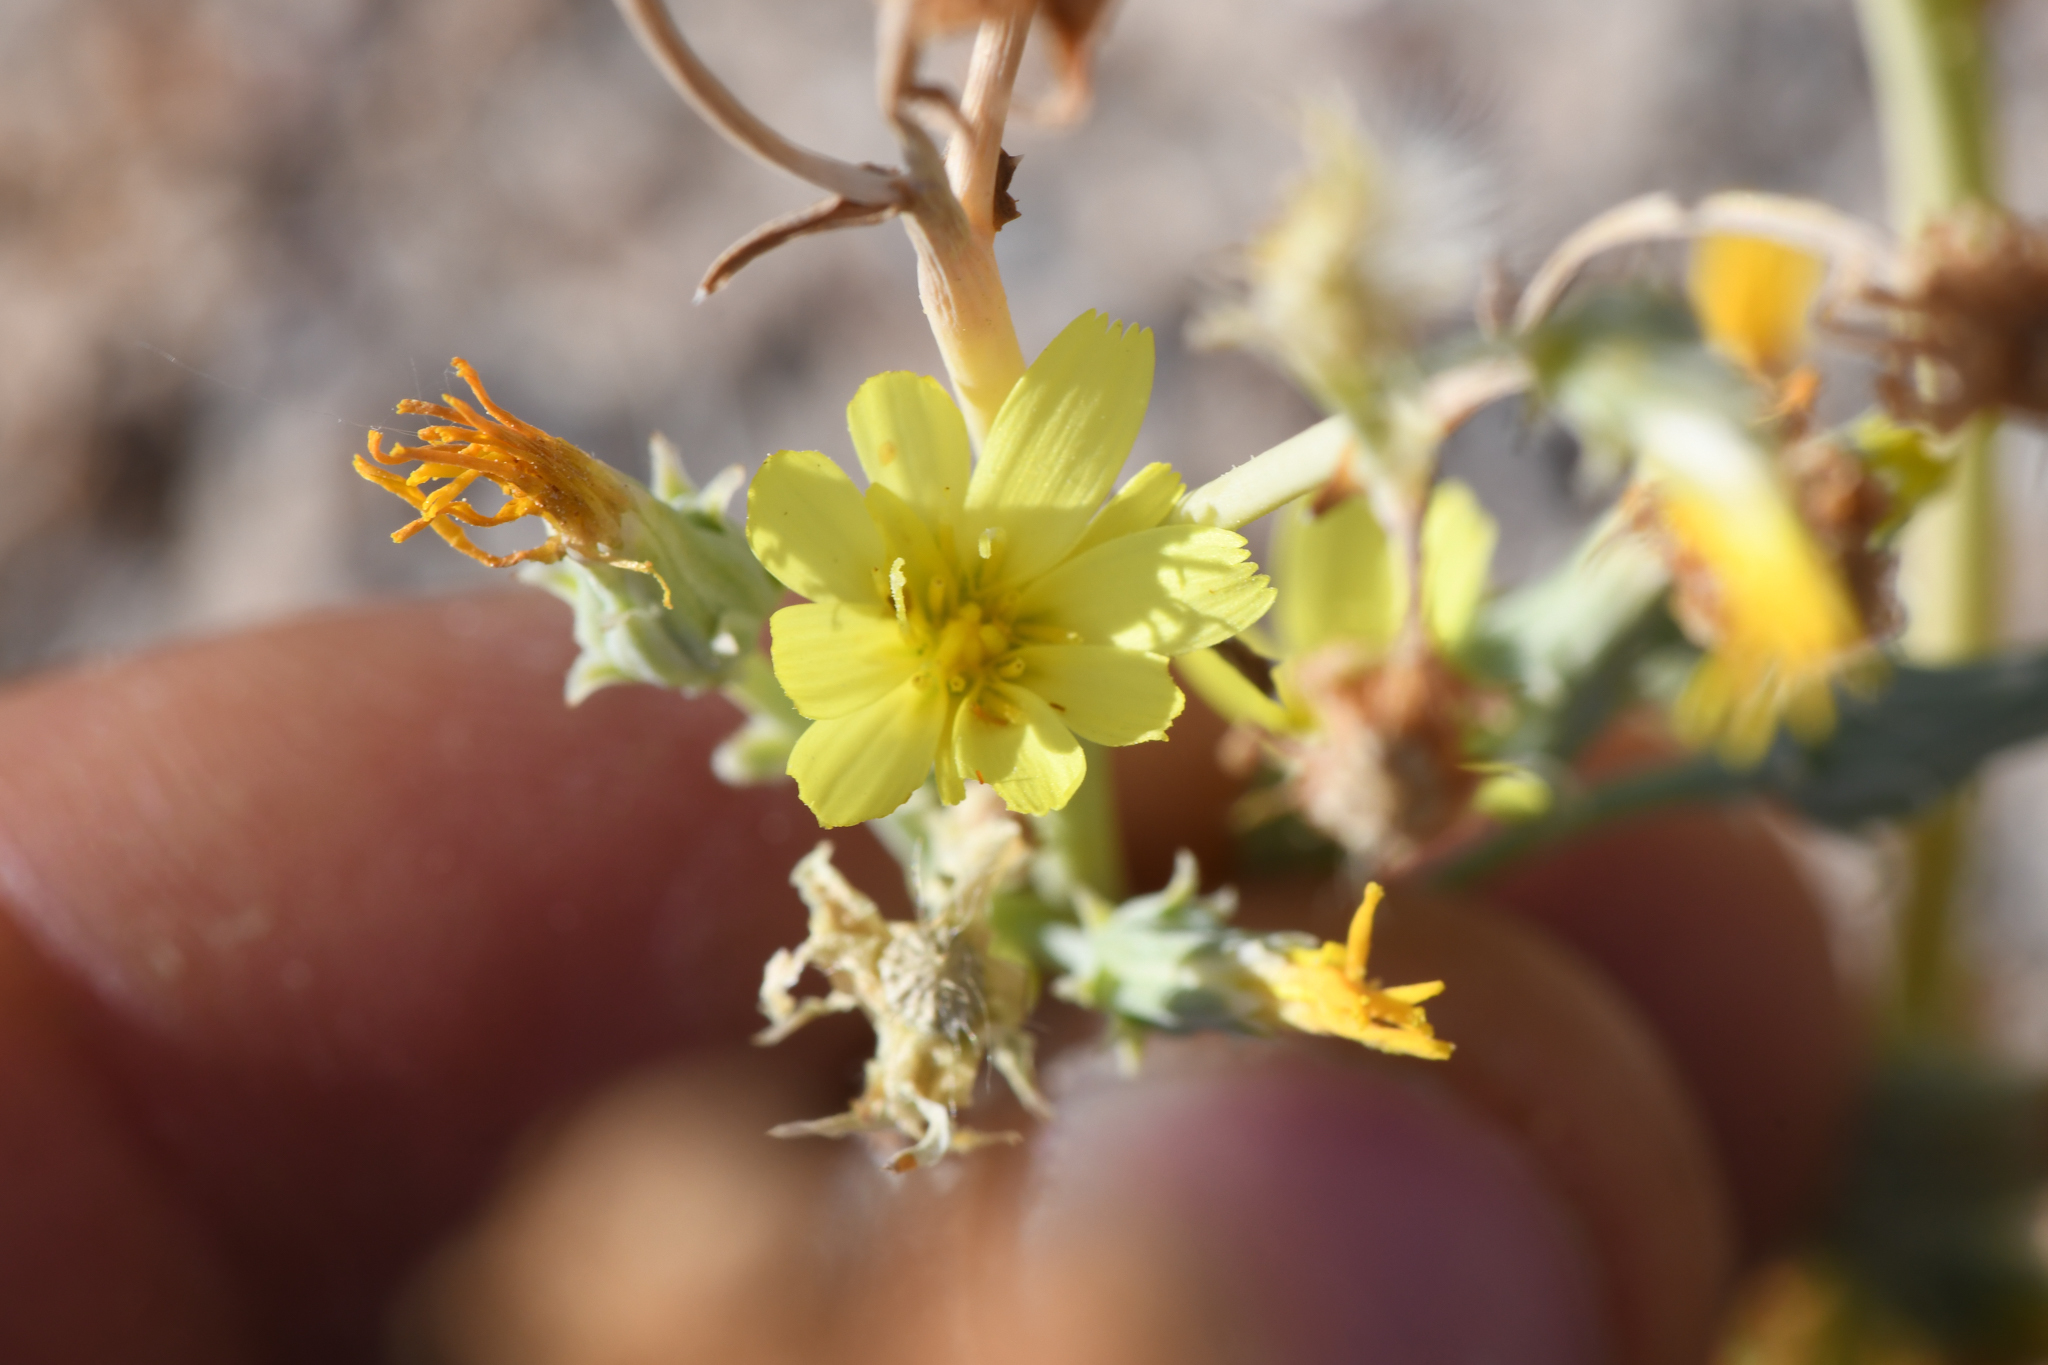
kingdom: Plantae
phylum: Tracheophyta
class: Magnoliopsida
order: Asterales
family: Asteraceae
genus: Malacothrix
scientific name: Malacothrix sonchoides
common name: Sow-thistle desert-dandelion
